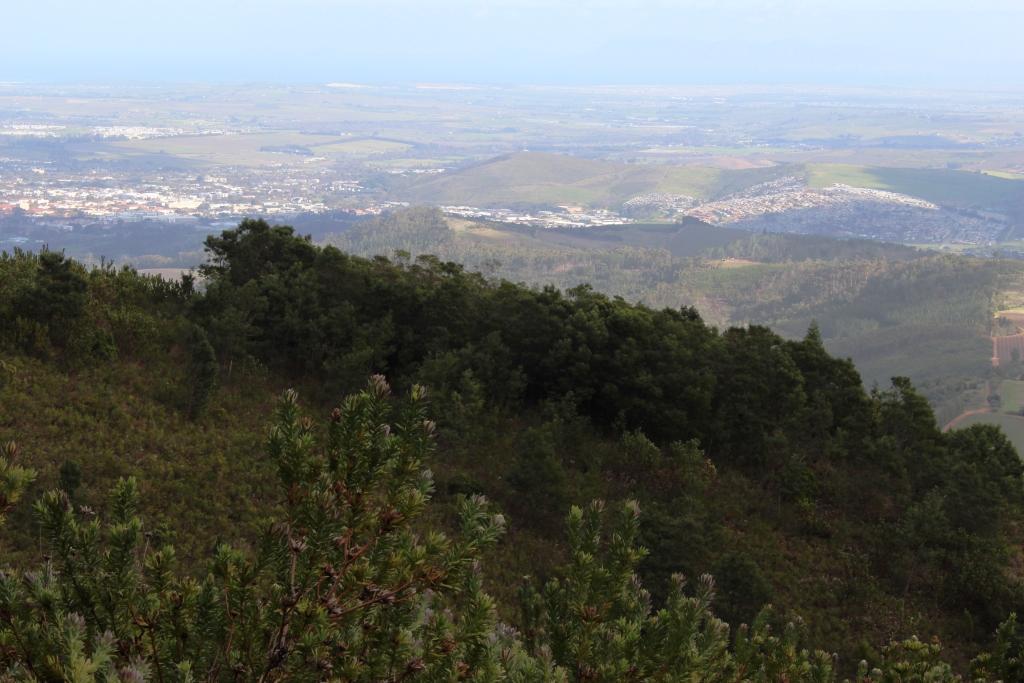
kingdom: Plantae
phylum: Tracheophyta
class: Magnoliopsida
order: Fabales
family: Fabaceae
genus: Acacia
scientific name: Acacia mearnsii
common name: Black wattle
